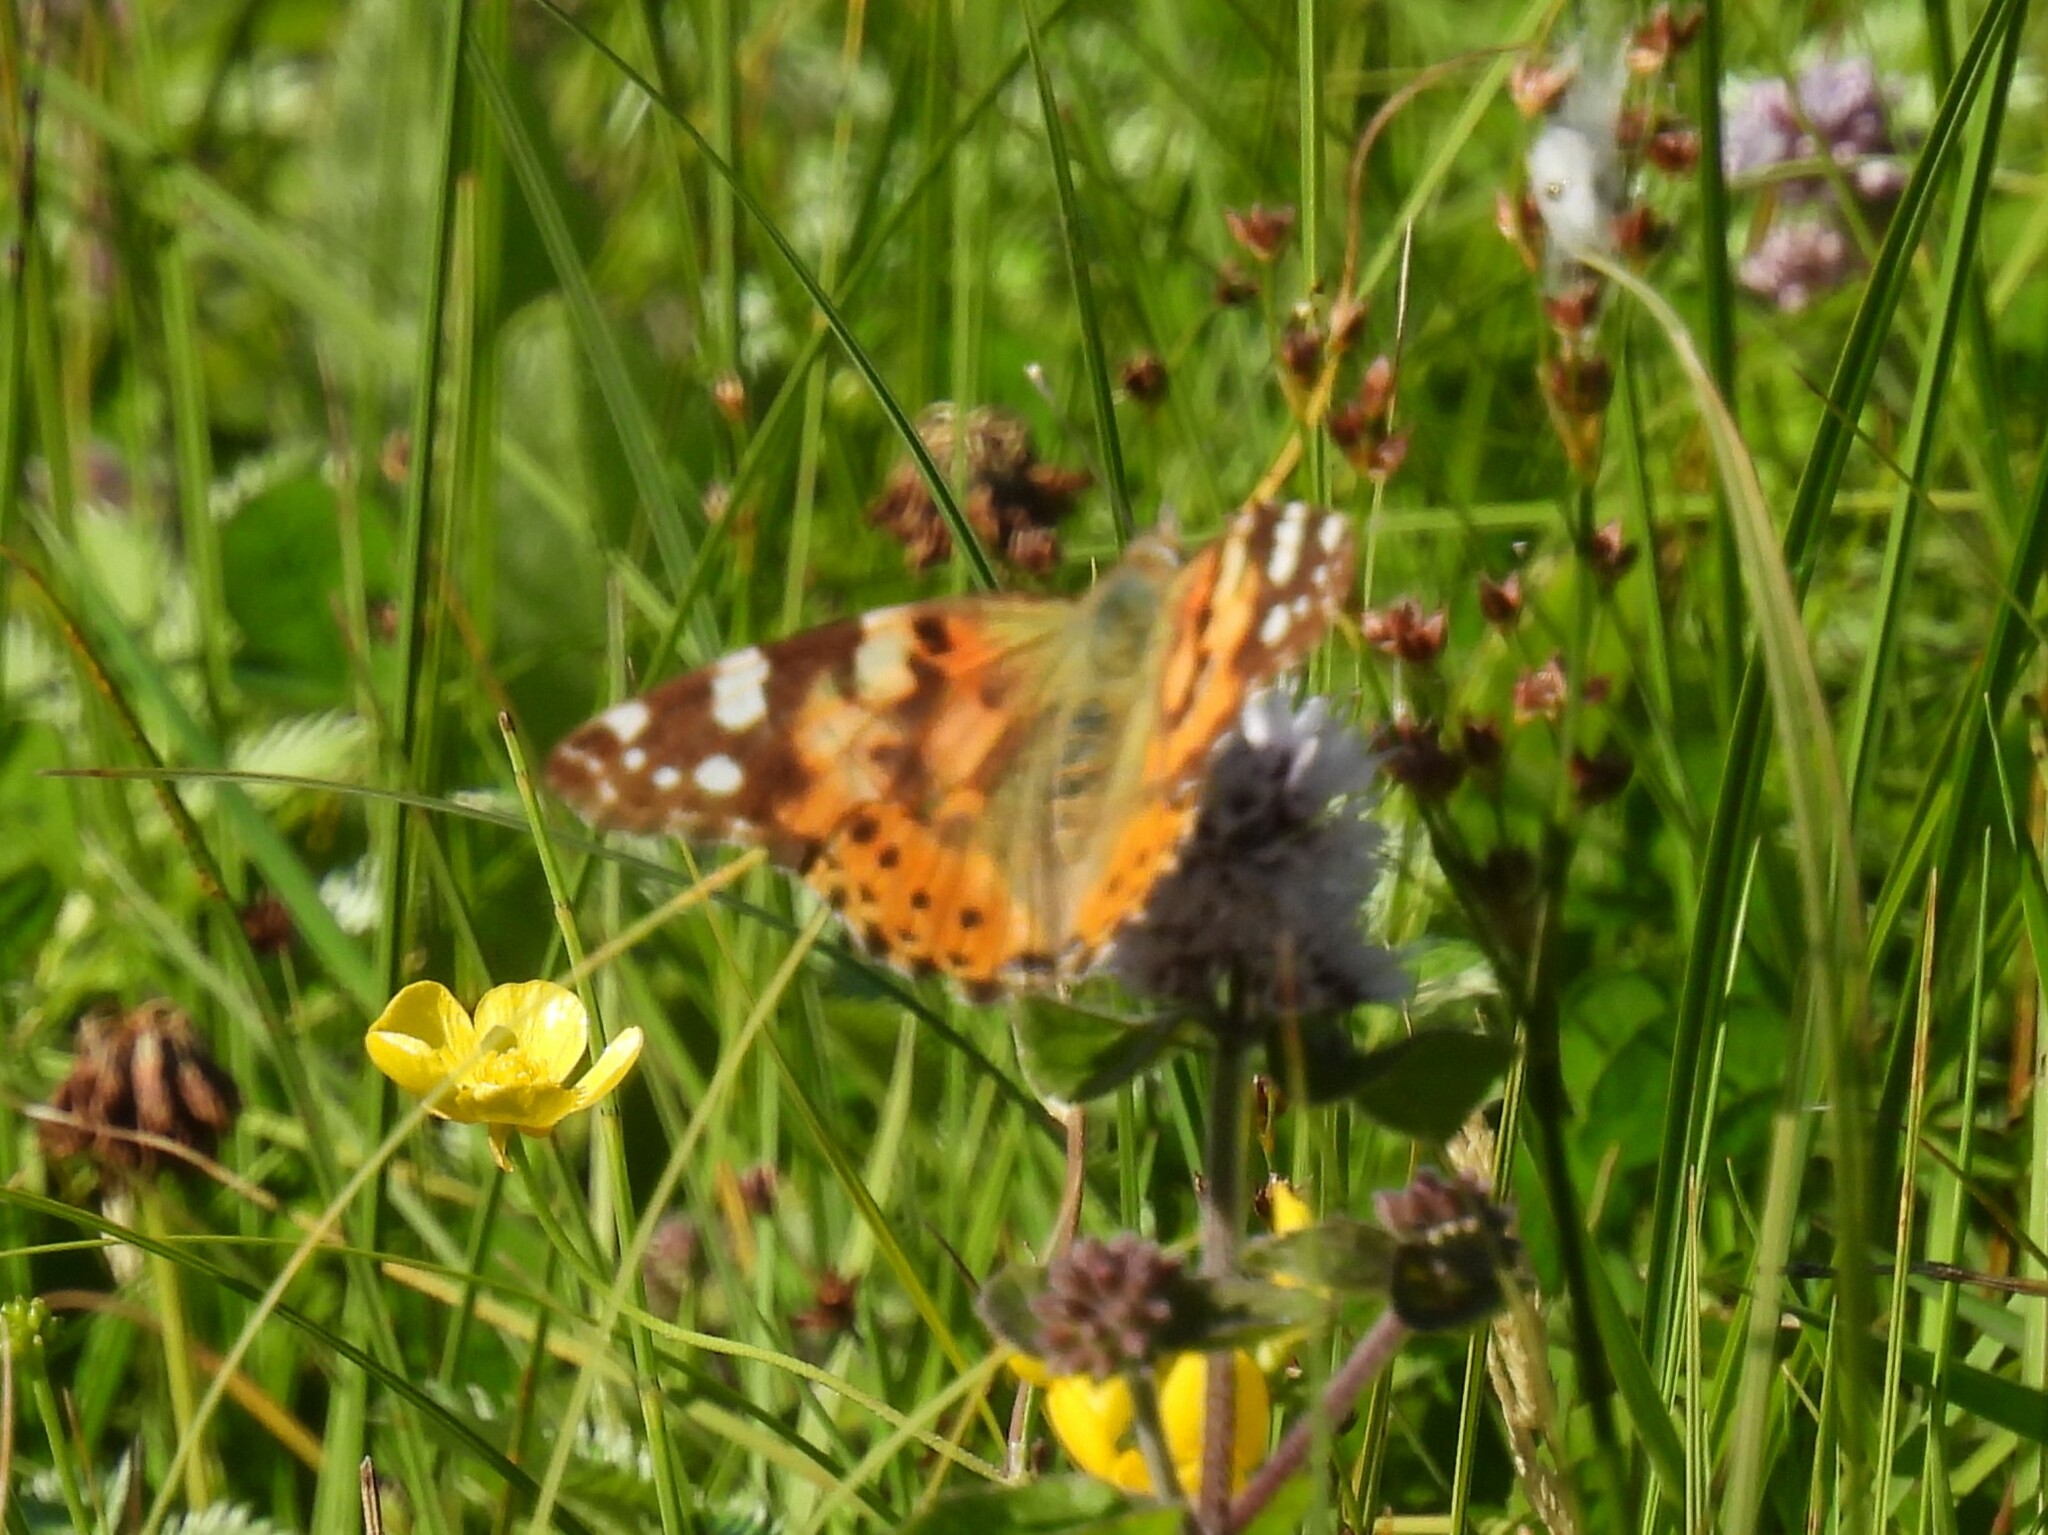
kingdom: Animalia
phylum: Arthropoda
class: Insecta
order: Lepidoptera
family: Nymphalidae
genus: Vanessa
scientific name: Vanessa cardui
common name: Painted lady
